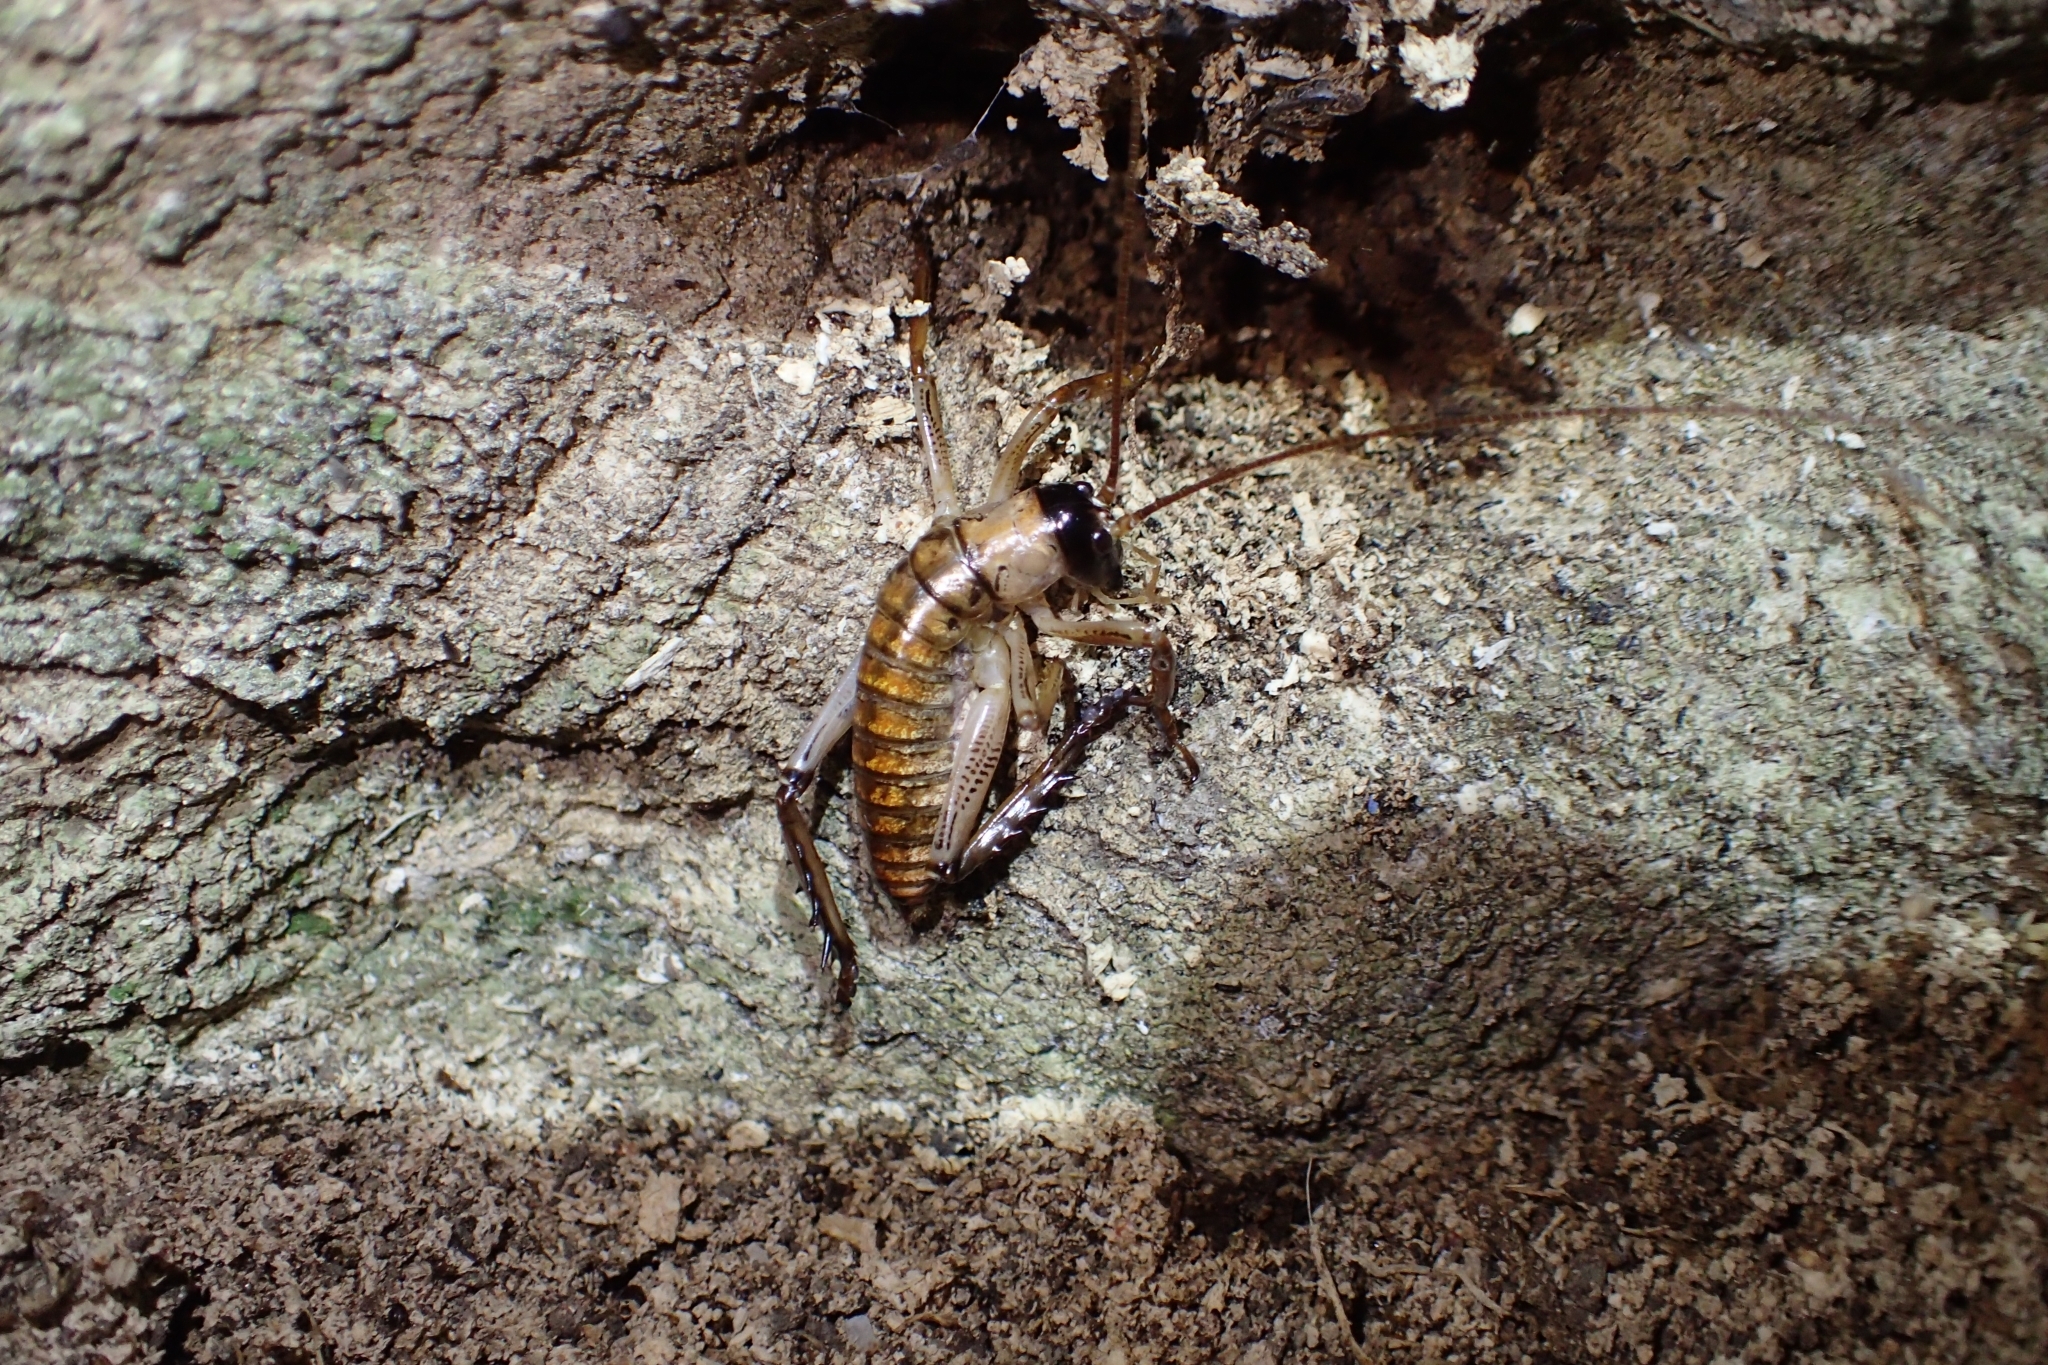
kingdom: Animalia
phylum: Arthropoda
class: Insecta
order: Orthoptera
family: Anostostomatidae
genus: Hemideina
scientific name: Hemideina thoracica
